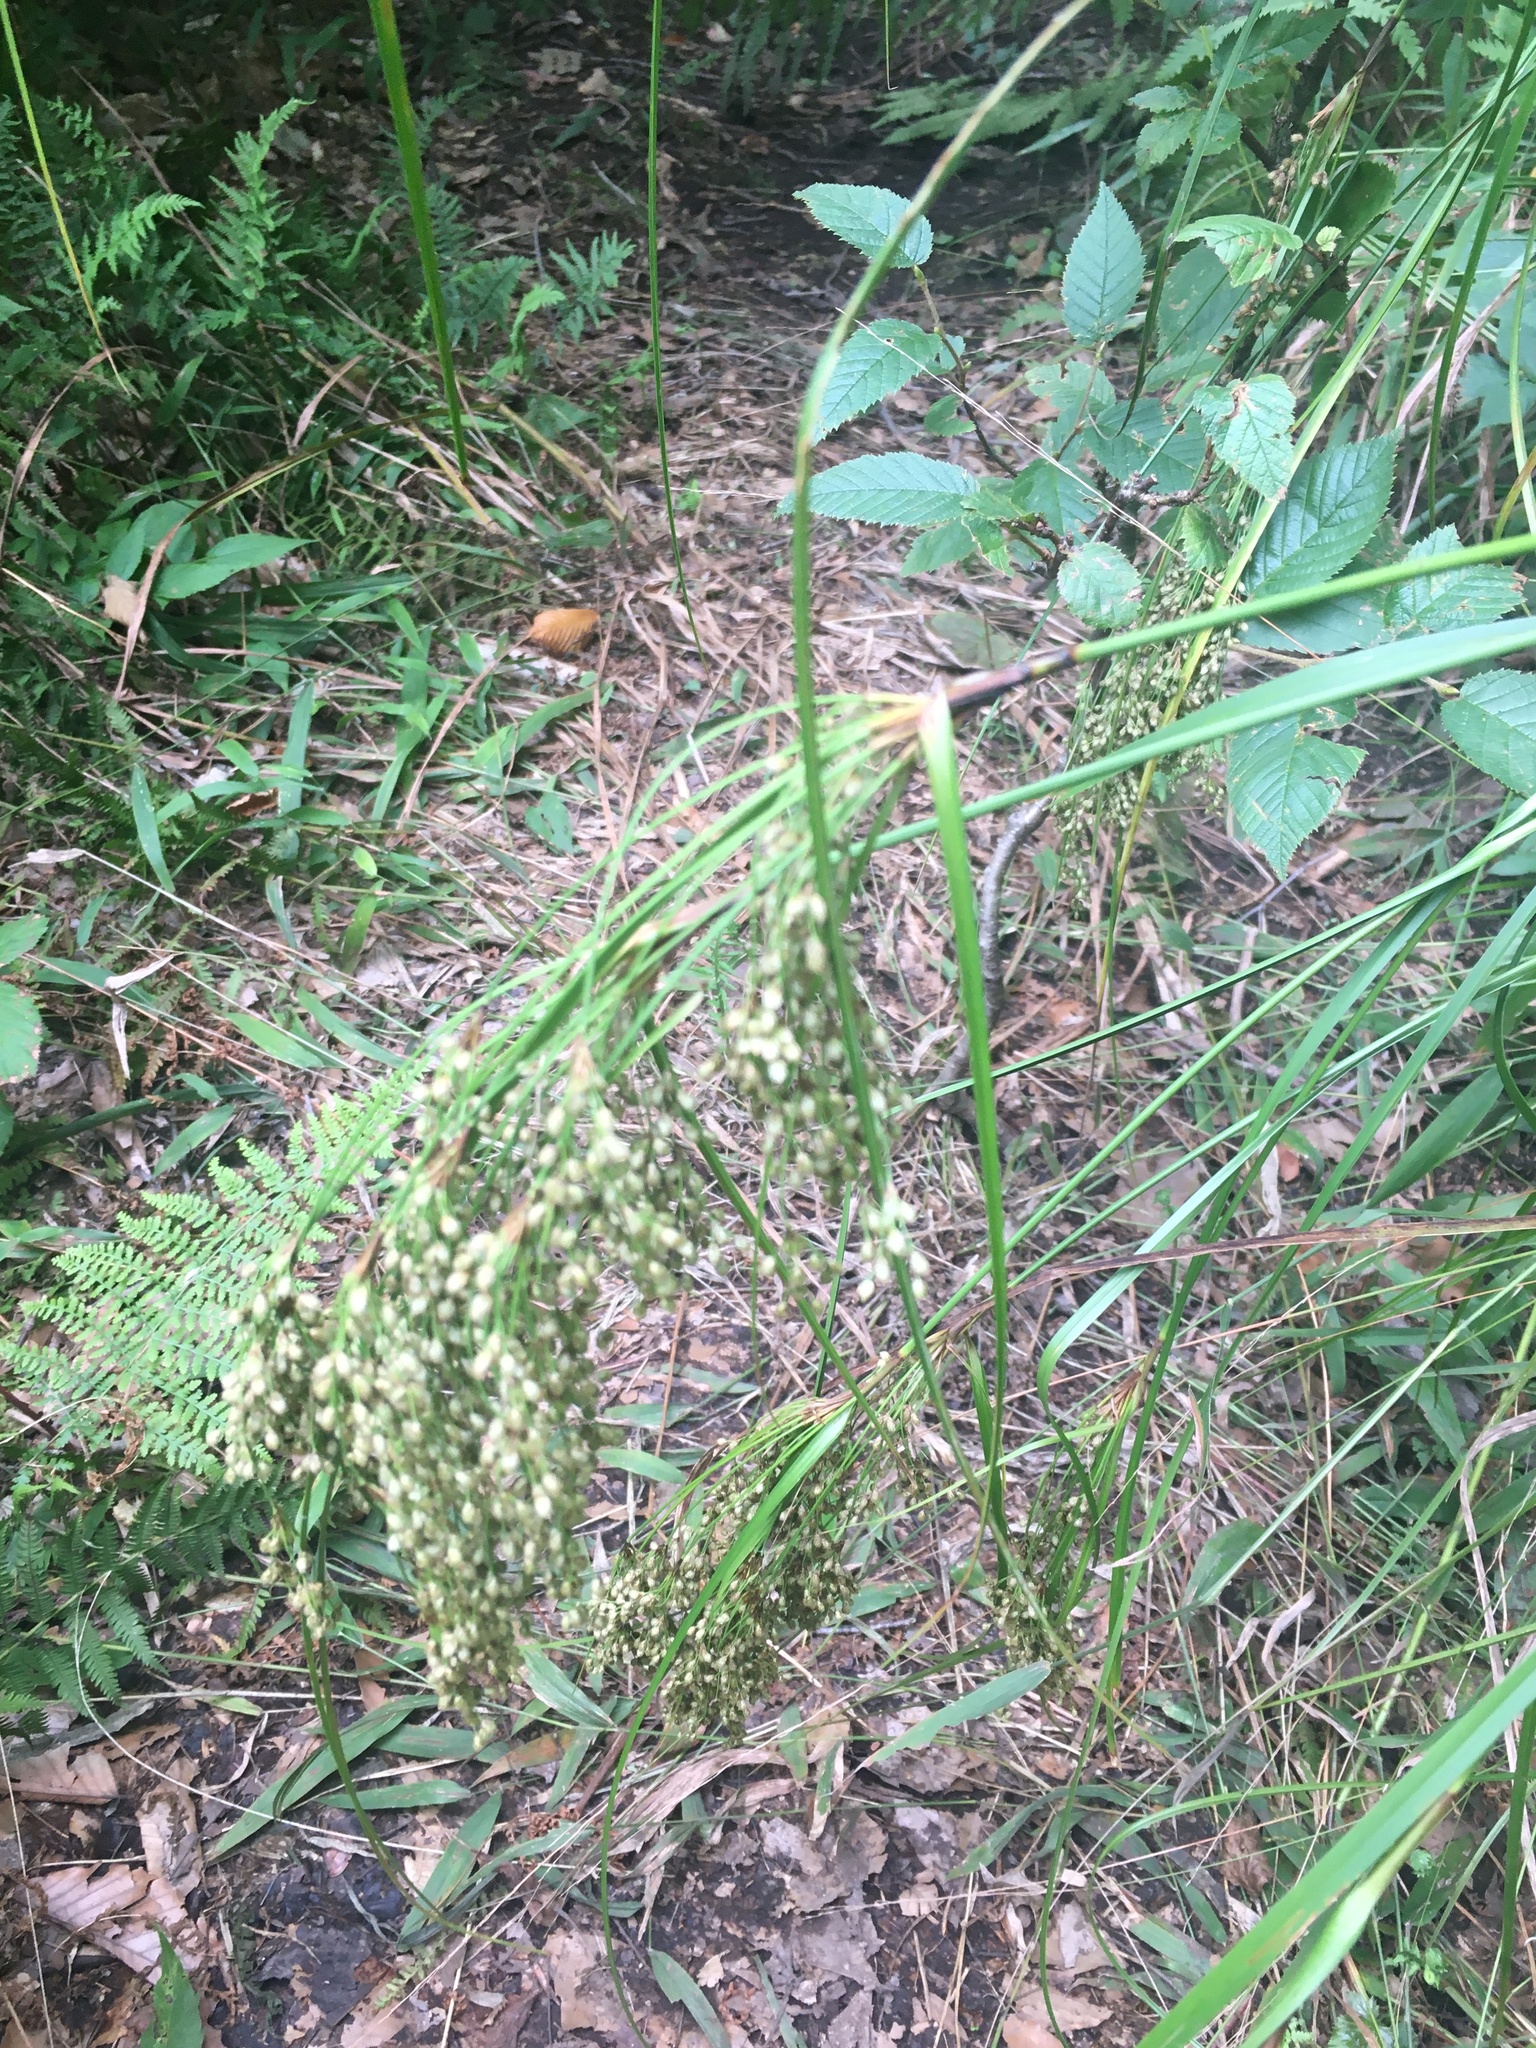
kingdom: Plantae
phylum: Tracheophyta
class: Liliopsida
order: Poales
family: Cyperaceae
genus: Scirpus
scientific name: Scirpus cyperinus
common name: Black-sheathed bulrush
